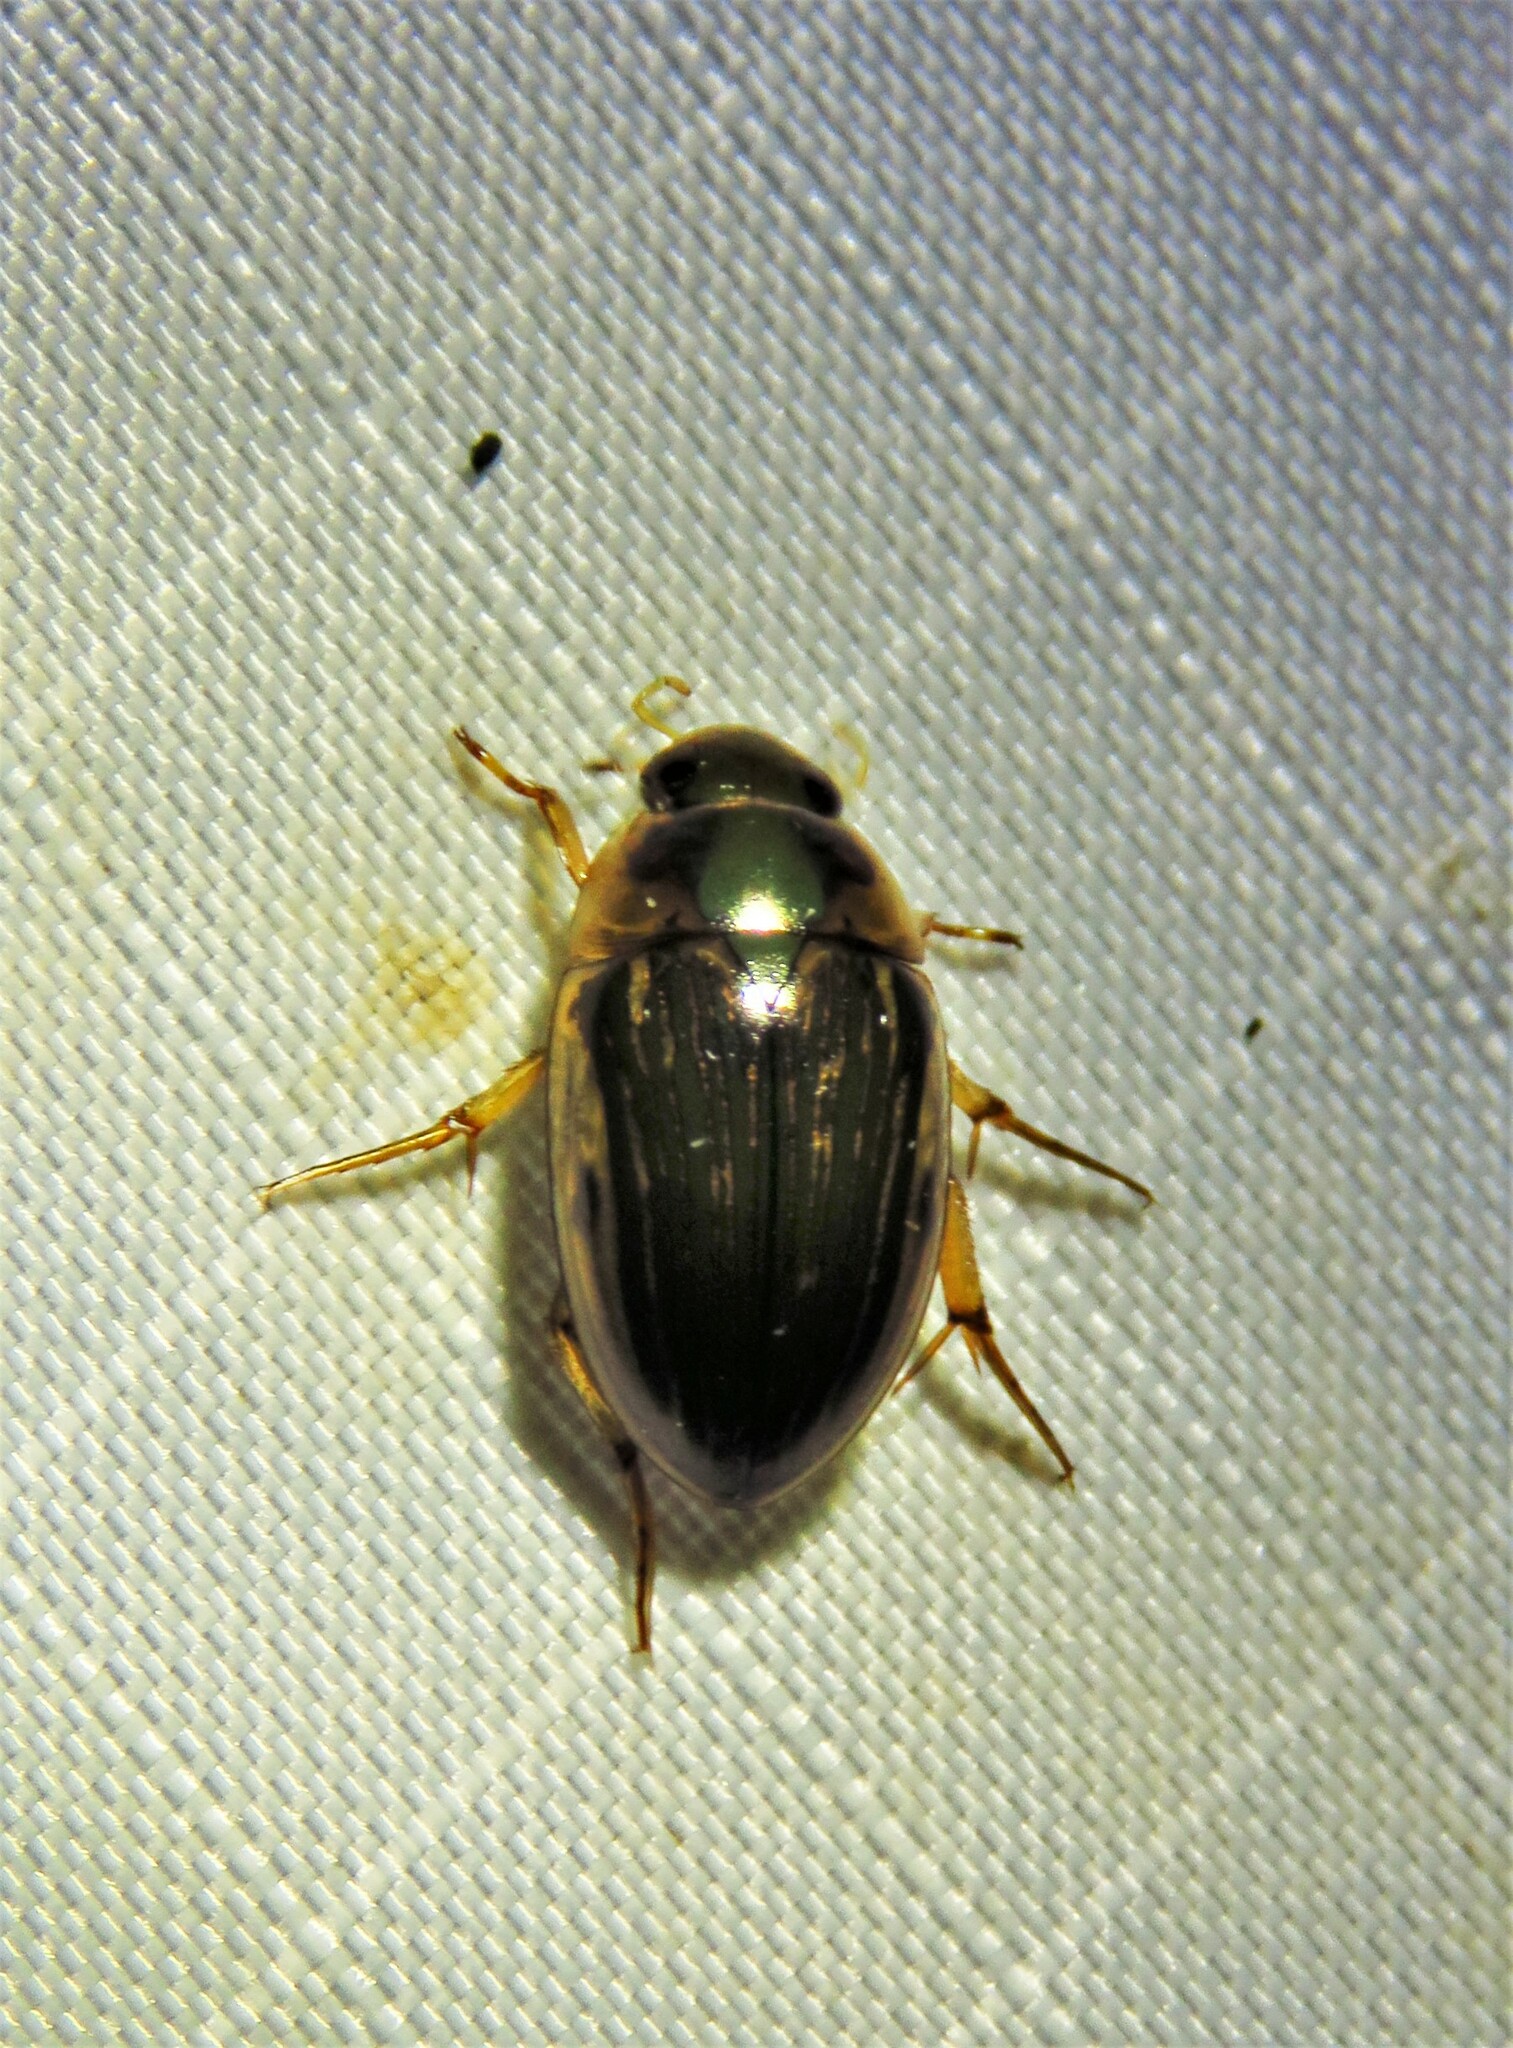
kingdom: Animalia
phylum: Arthropoda
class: Insecta
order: Coleoptera
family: Hydrophilidae
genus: Tropisternus
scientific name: Tropisternus collaris
